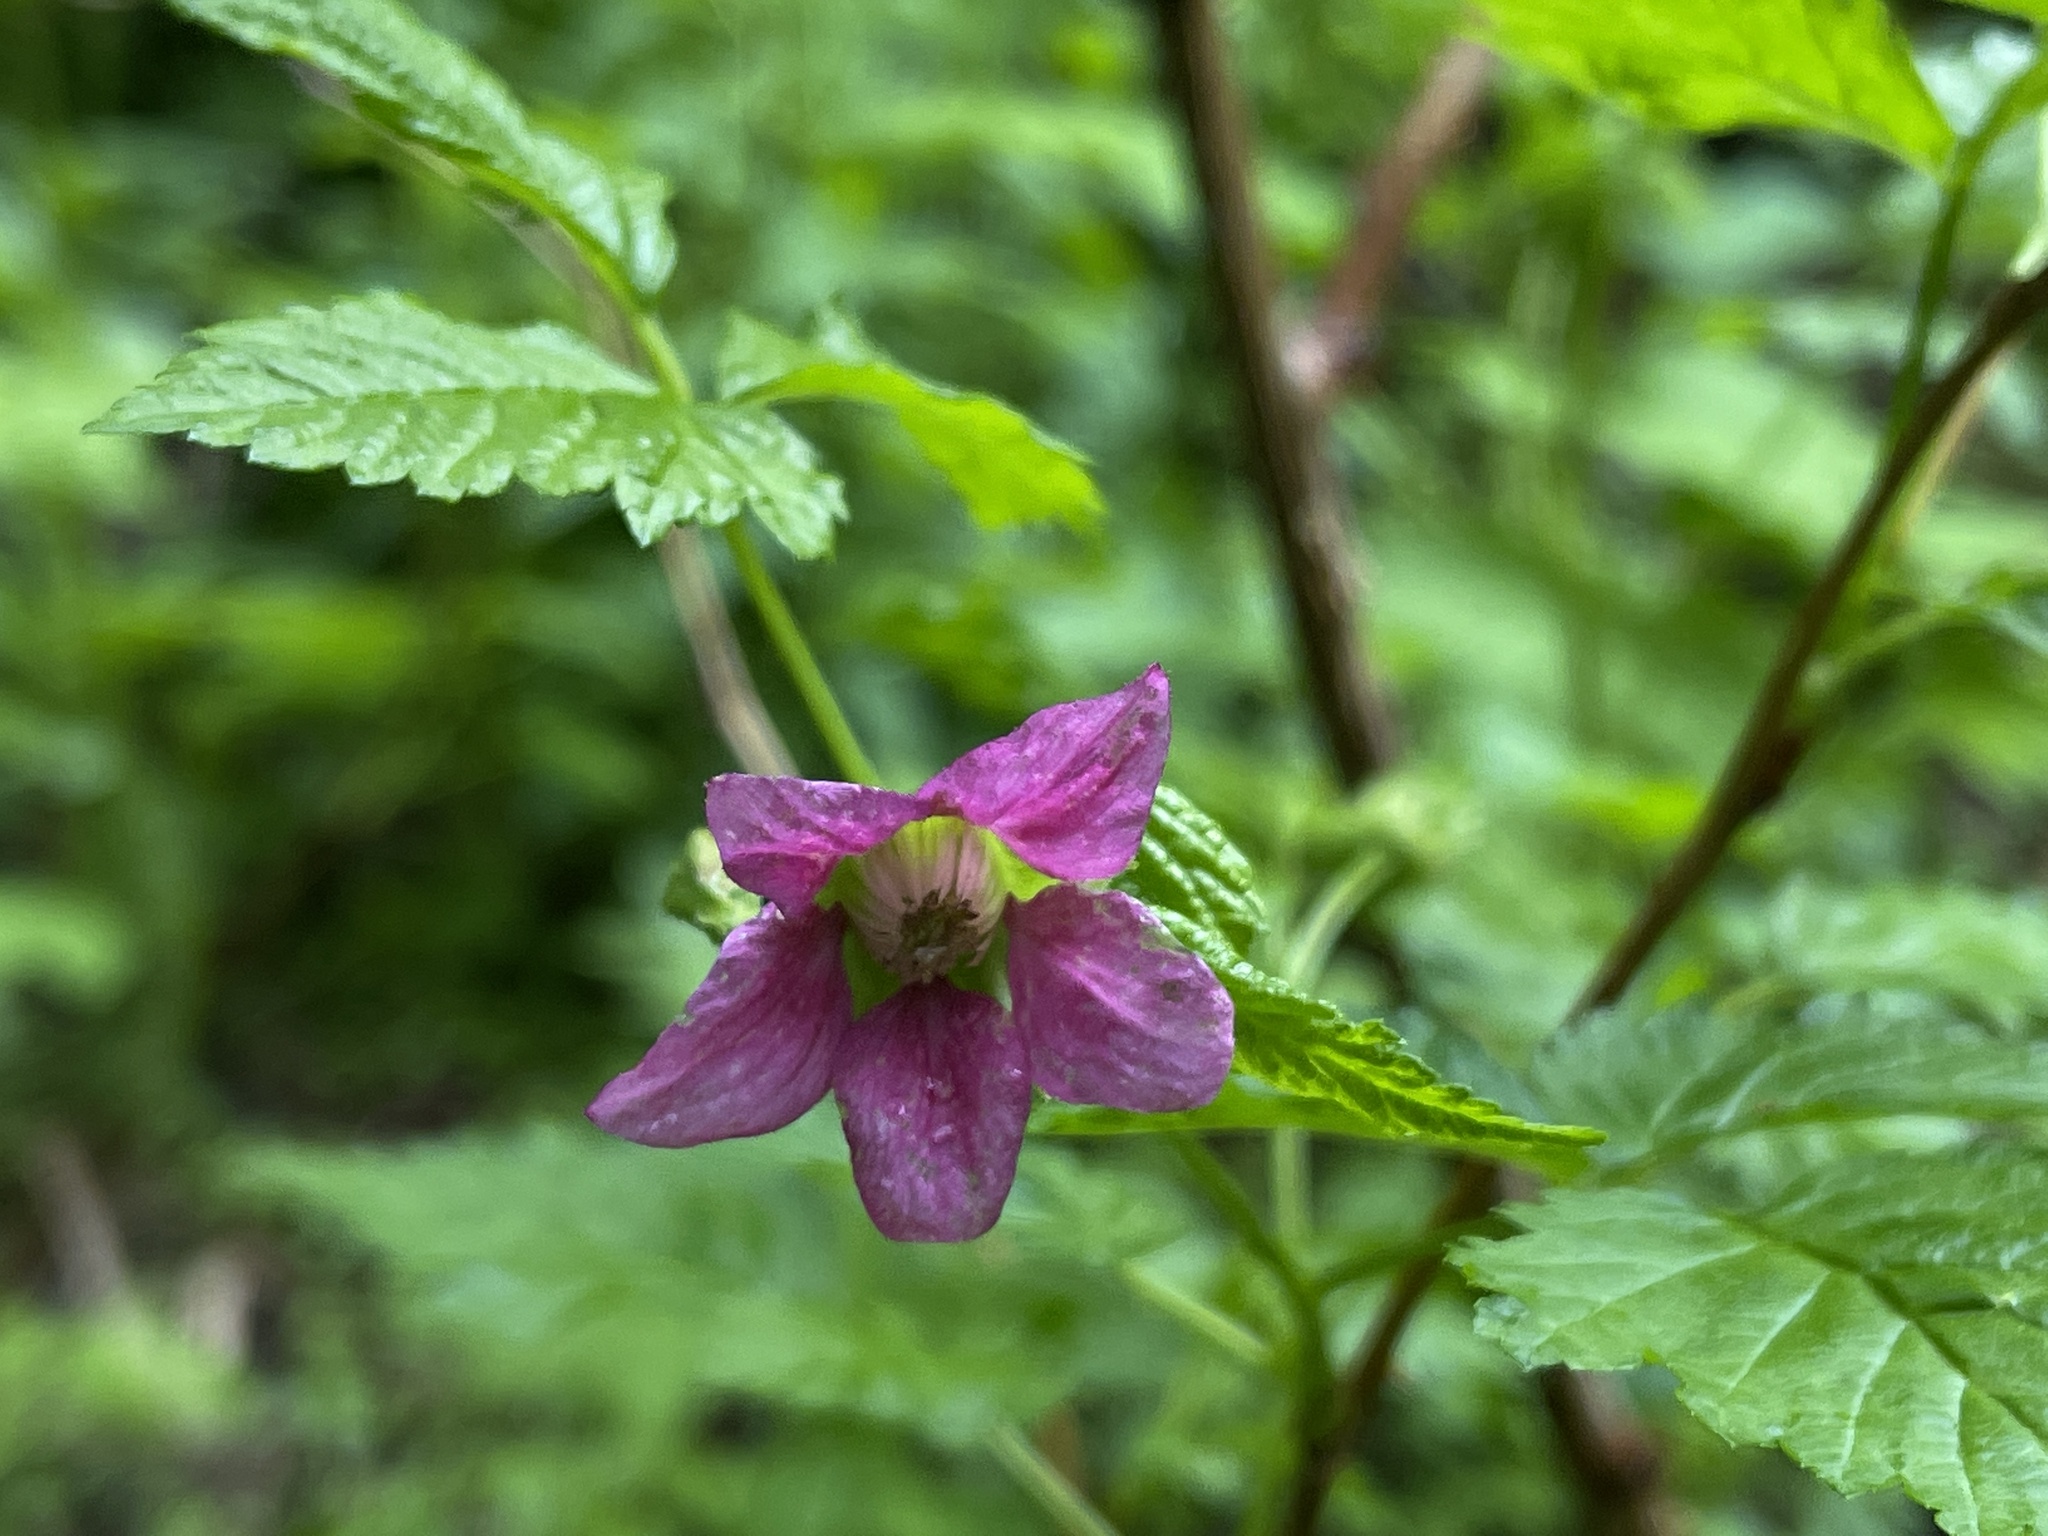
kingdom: Plantae
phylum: Tracheophyta
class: Magnoliopsida
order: Rosales
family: Rosaceae
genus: Rubus
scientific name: Rubus spectabilis
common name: Salmonberry
